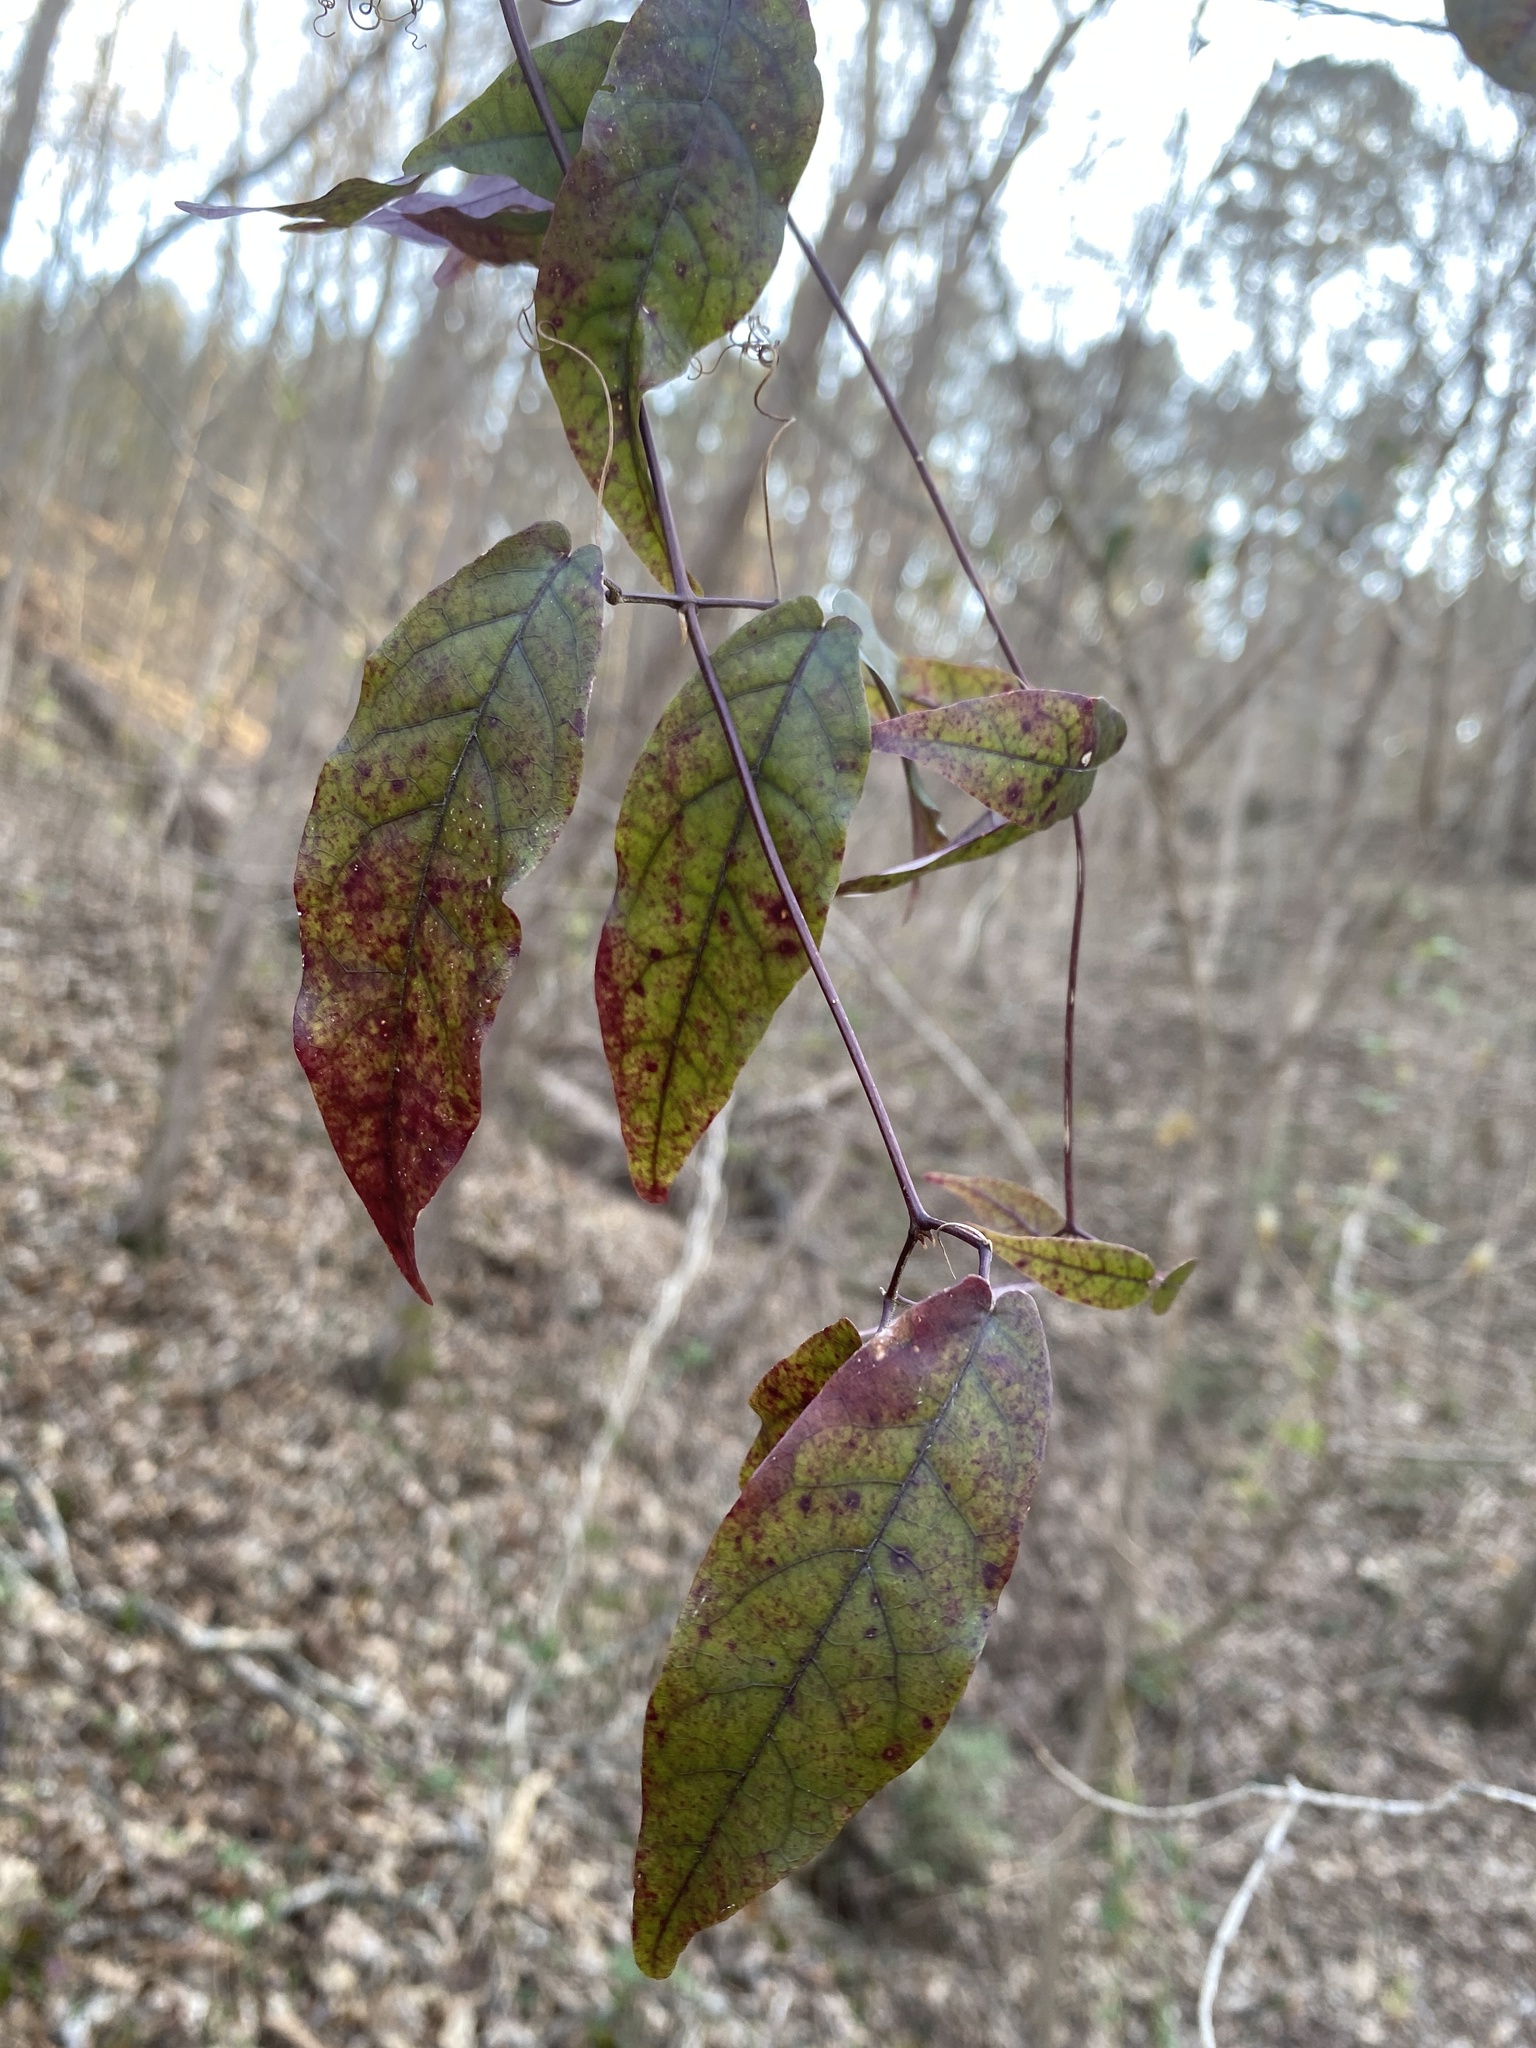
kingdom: Plantae
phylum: Tracheophyta
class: Magnoliopsida
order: Lamiales
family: Bignoniaceae
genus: Bignonia
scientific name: Bignonia capreolata
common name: Crossvine
